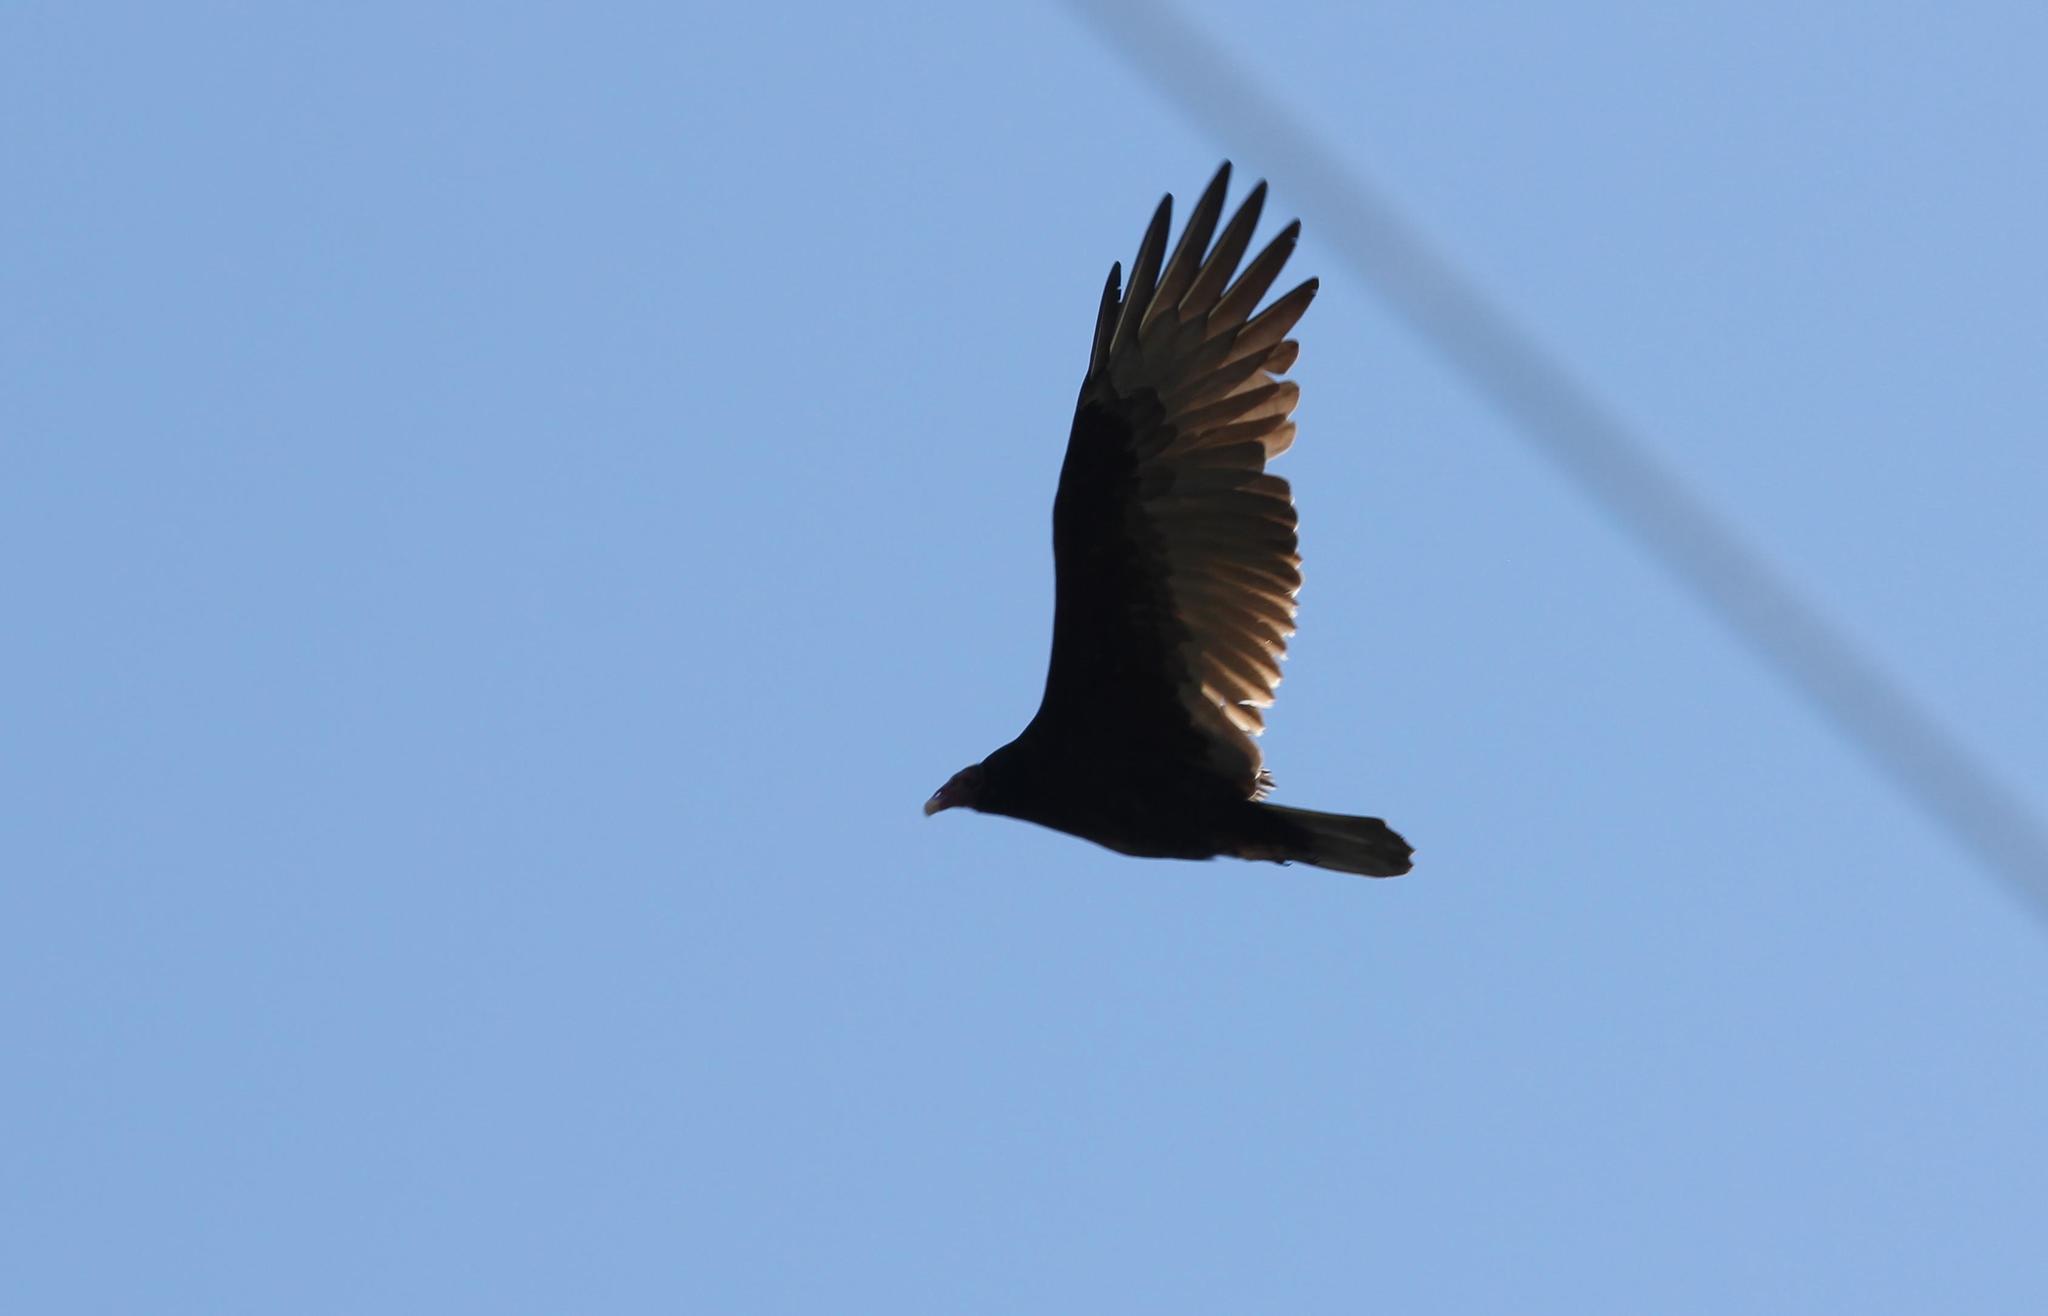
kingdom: Animalia
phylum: Chordata
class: Aves
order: Accipitriformes
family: Cathartidae
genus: Cathartes
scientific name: Cathartes aura
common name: Turkey vulture
